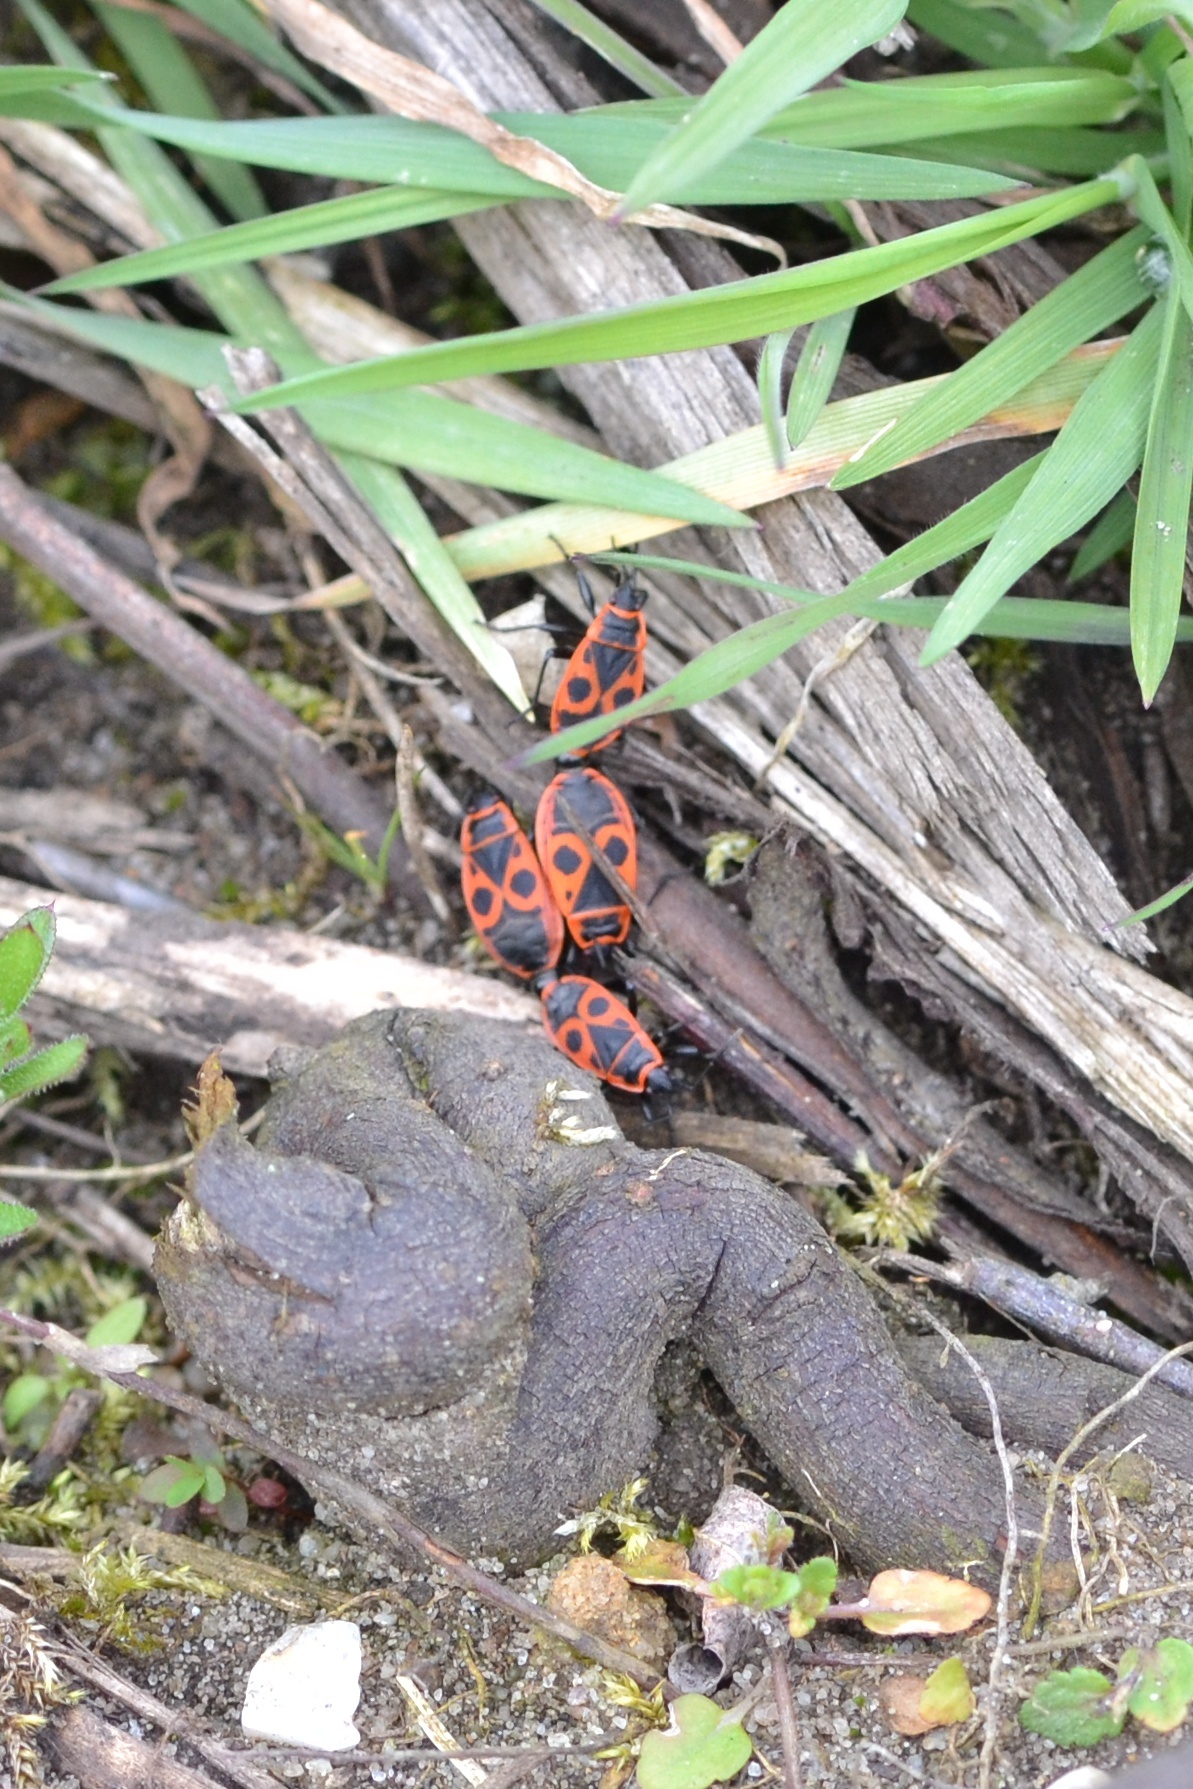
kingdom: Animalia
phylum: Arthropoda
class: Insecta
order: Hemiptera
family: Pyrrhocoridae
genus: Pyrrhocoris
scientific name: Pyrrhocoris apterus
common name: Firebug
